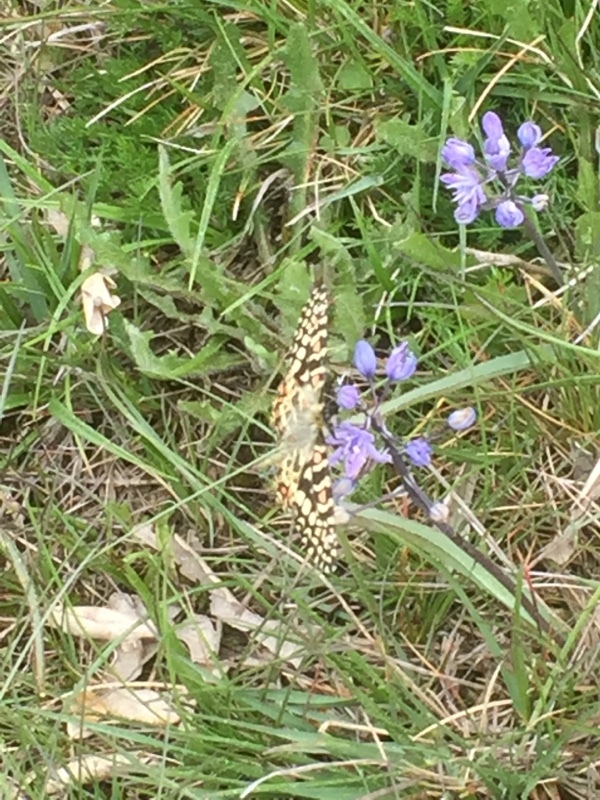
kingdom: Animalia
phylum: Arthropoda
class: Insecta
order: Lepidoptera
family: Papilionidae
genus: Zerynthia
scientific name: Zerynthia rumina
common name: Spanish festoon
